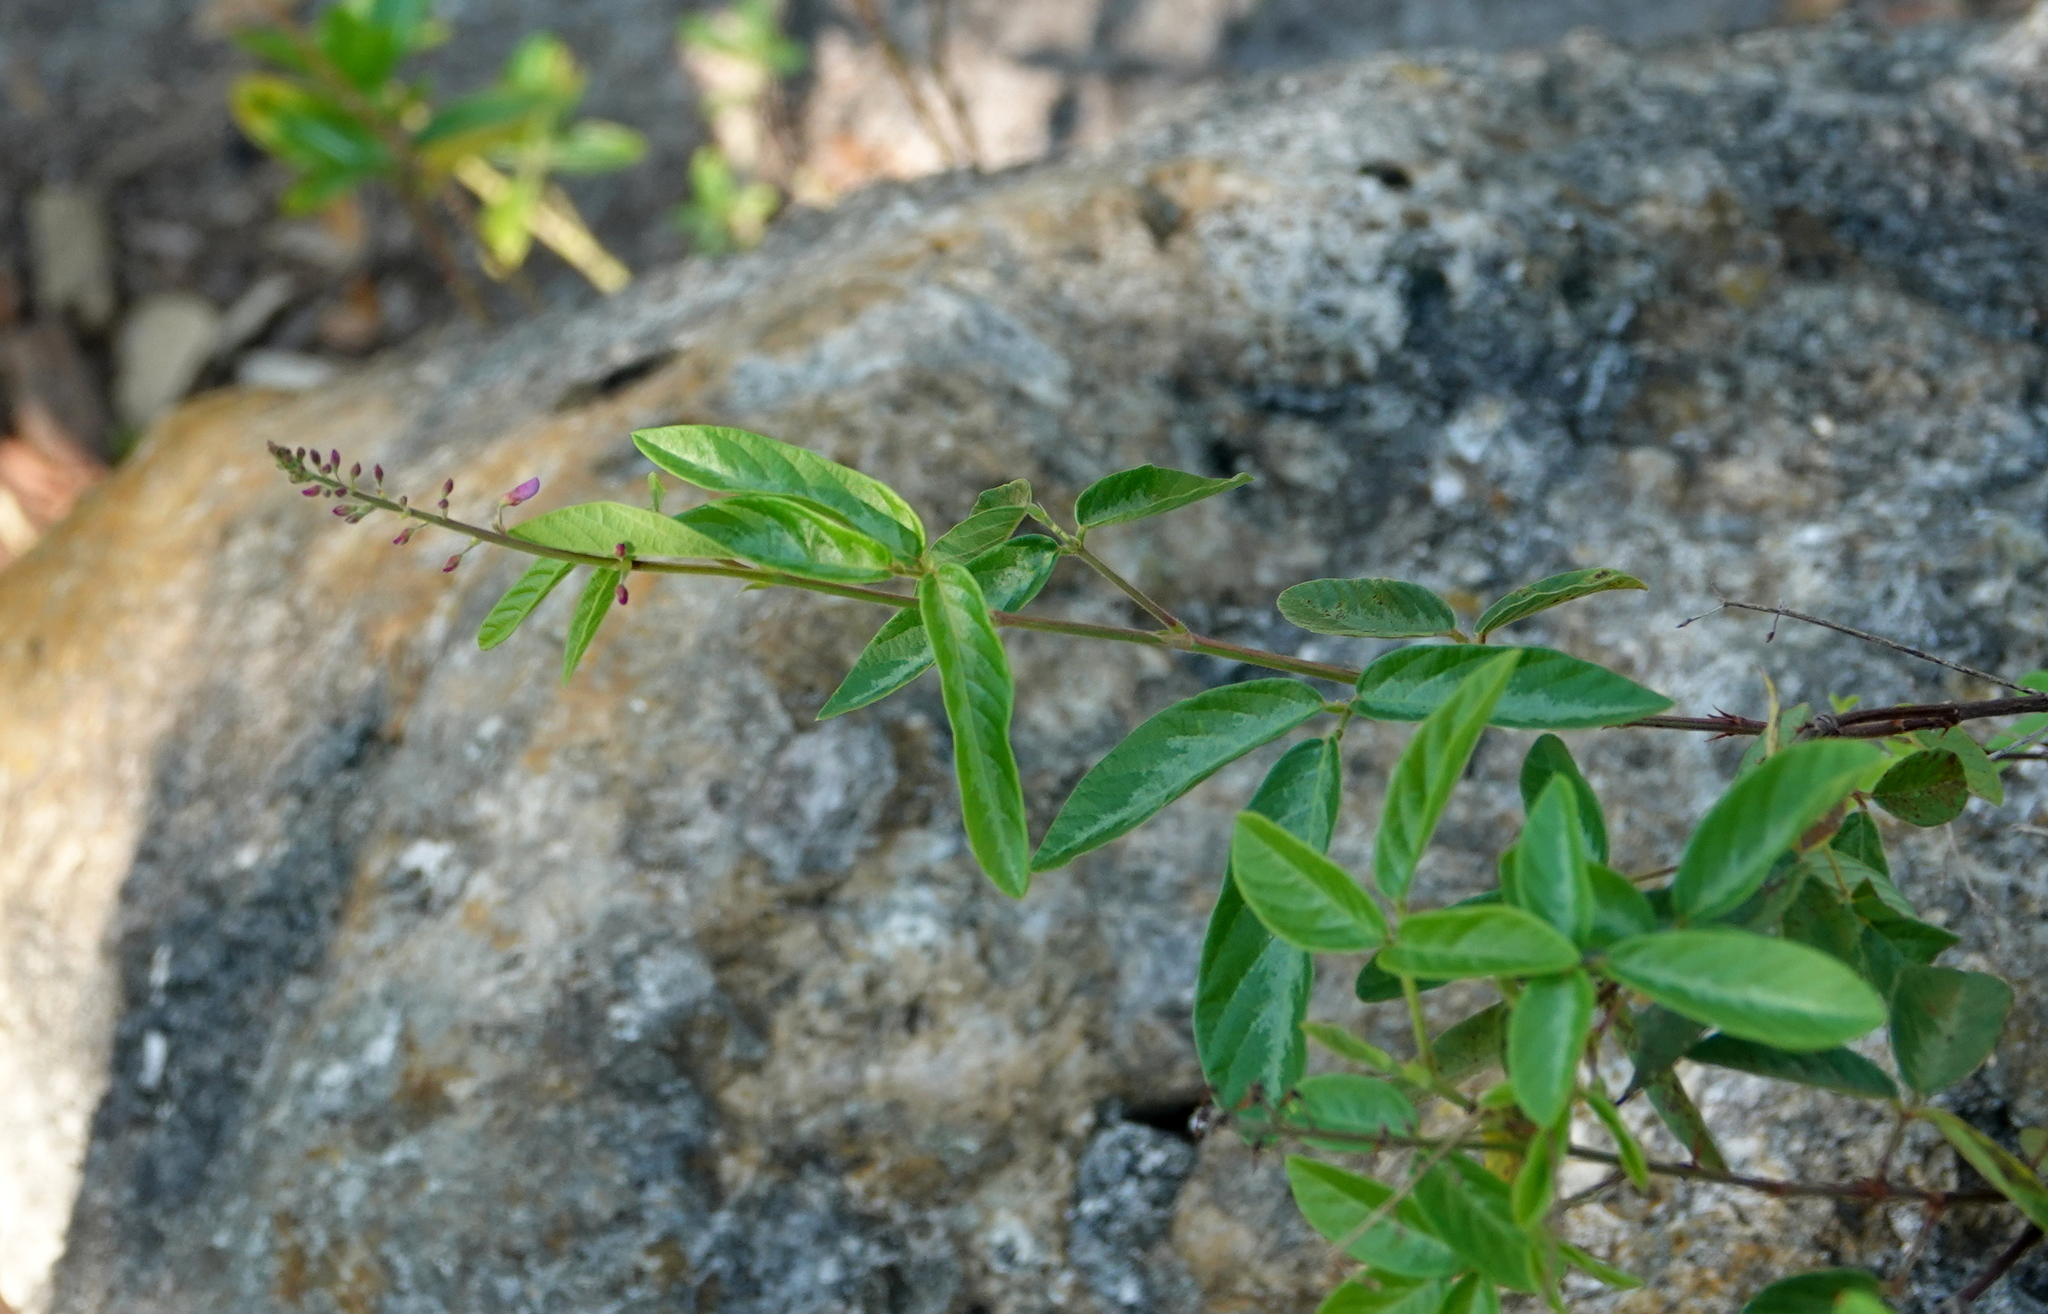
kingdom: Plantae
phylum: Tracheophyta
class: Magnoliopsida
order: Fabales
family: Fabaceae
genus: Desmodium
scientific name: Desmodium incanum
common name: Tickclover
